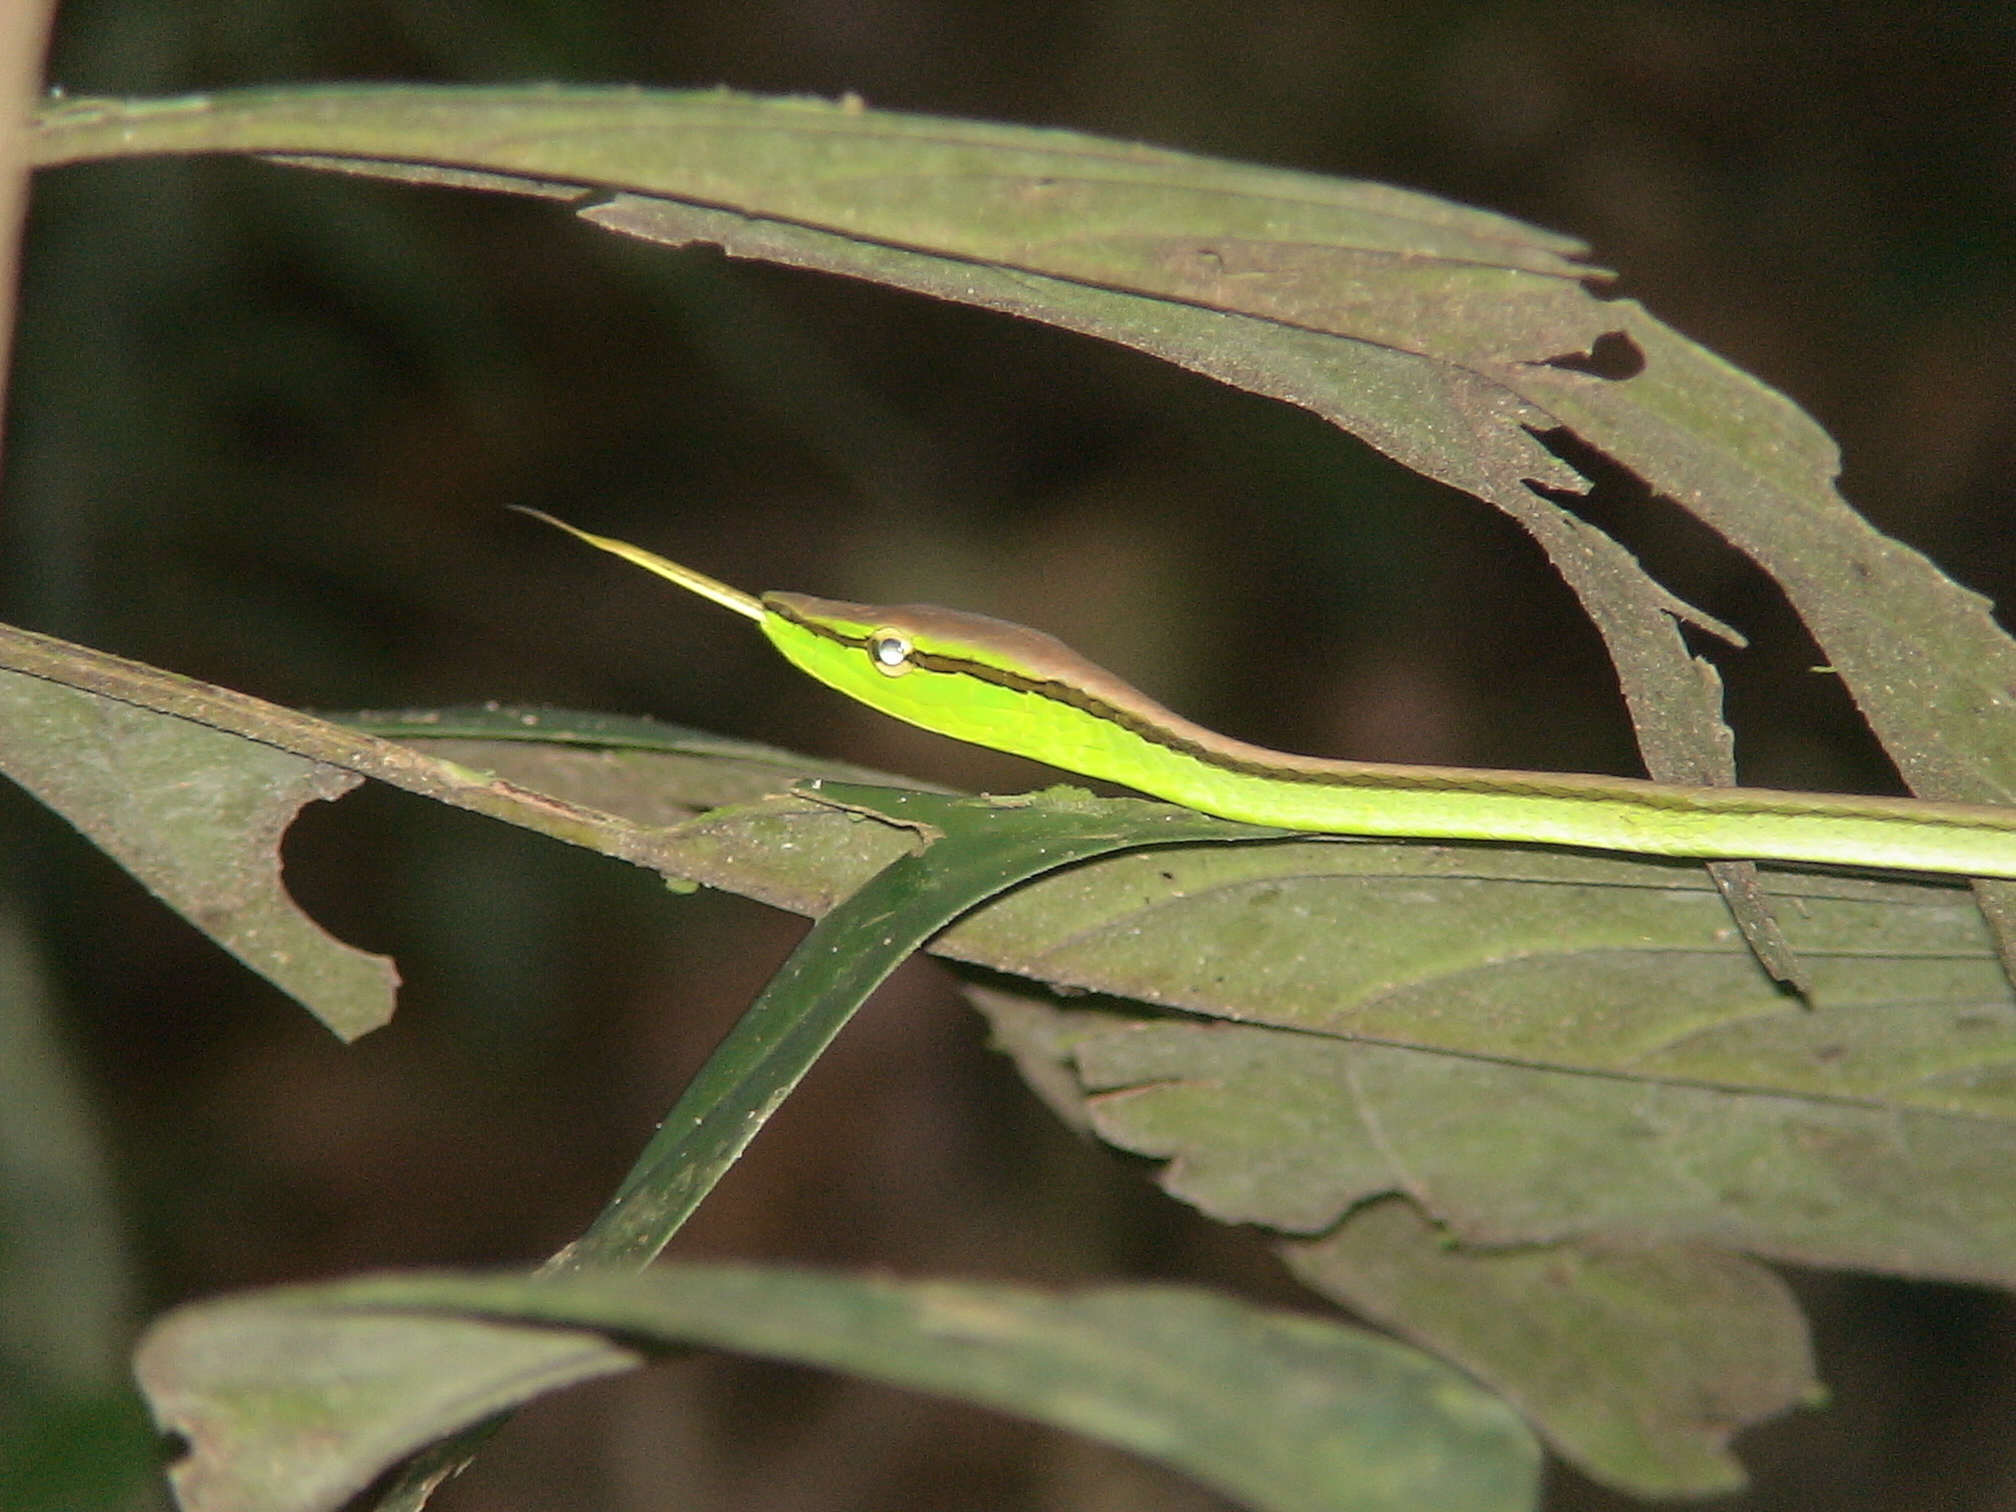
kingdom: Animalia
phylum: Chordata
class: Squamata
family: Colubridae
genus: Xenoxybelis
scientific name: Xenoxybelis boulengeri
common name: Southern sharpnose snake
